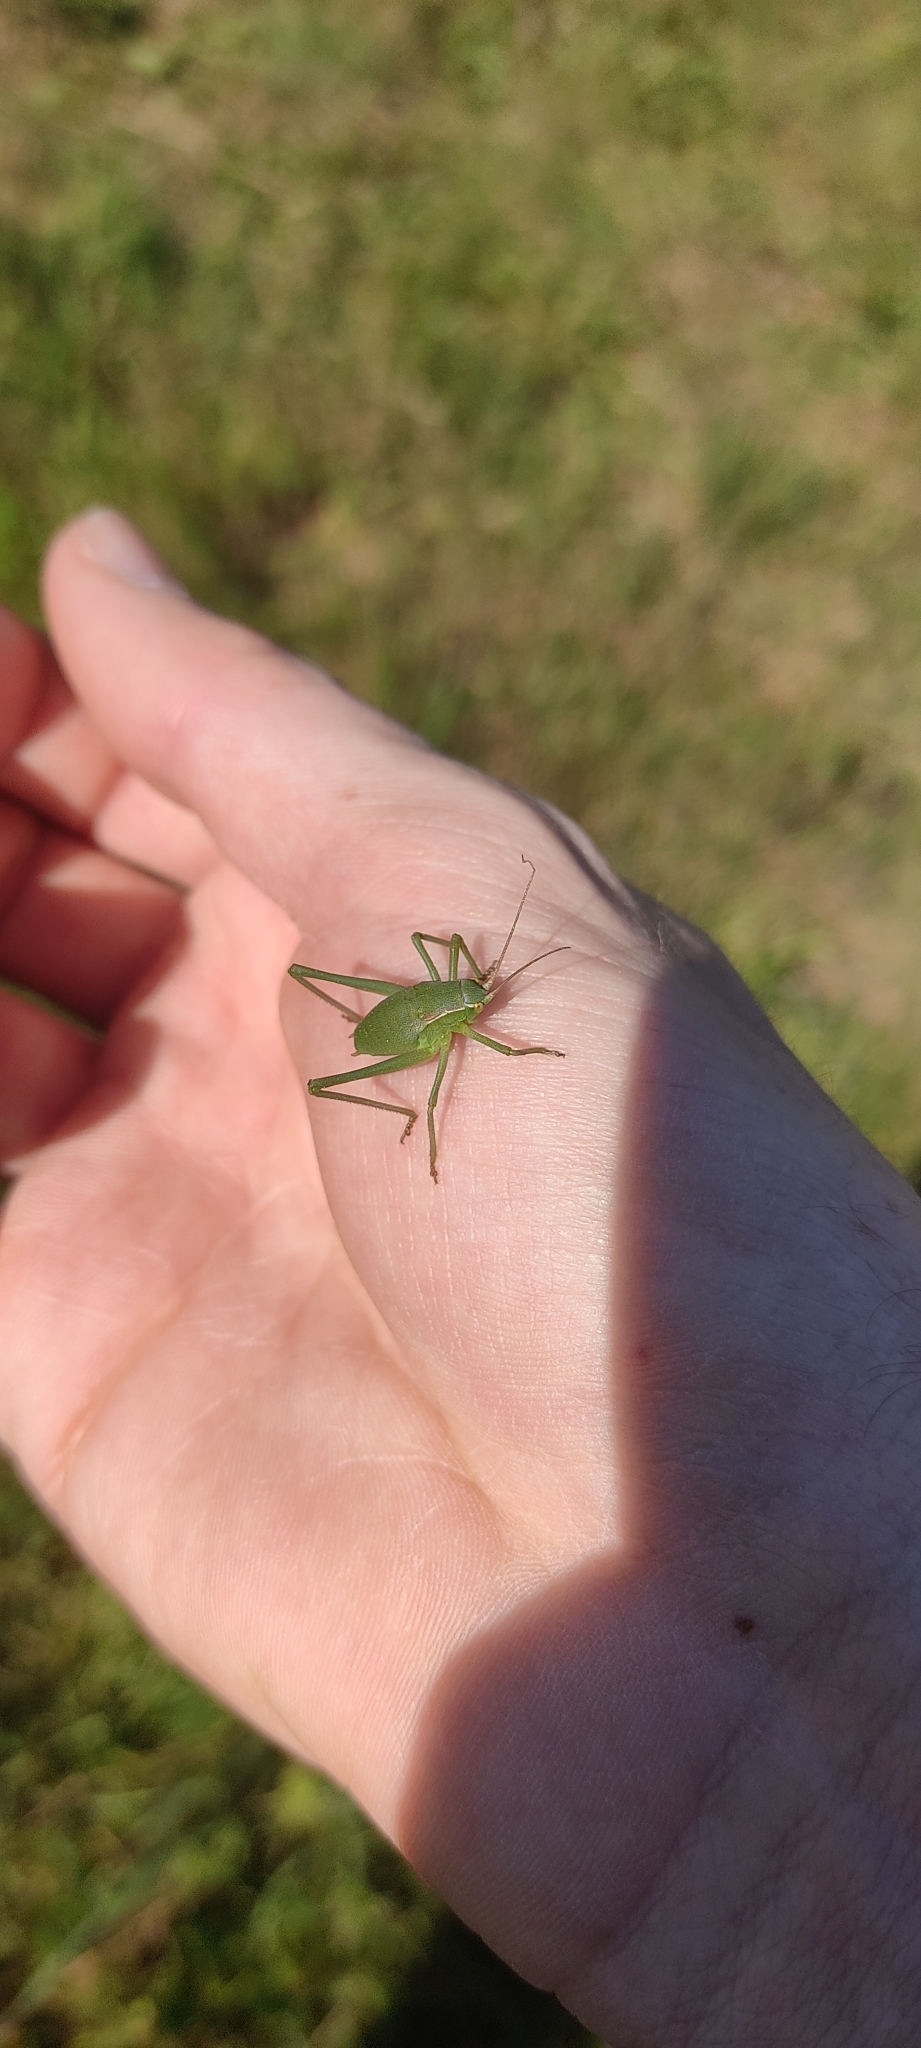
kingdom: Animalia
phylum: Arthropoda
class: Insecta
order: Orthoptera
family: Tettigoniidae
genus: Isophya
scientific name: Isophya pyrenaea
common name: Pyrenean plump bush-cricket
